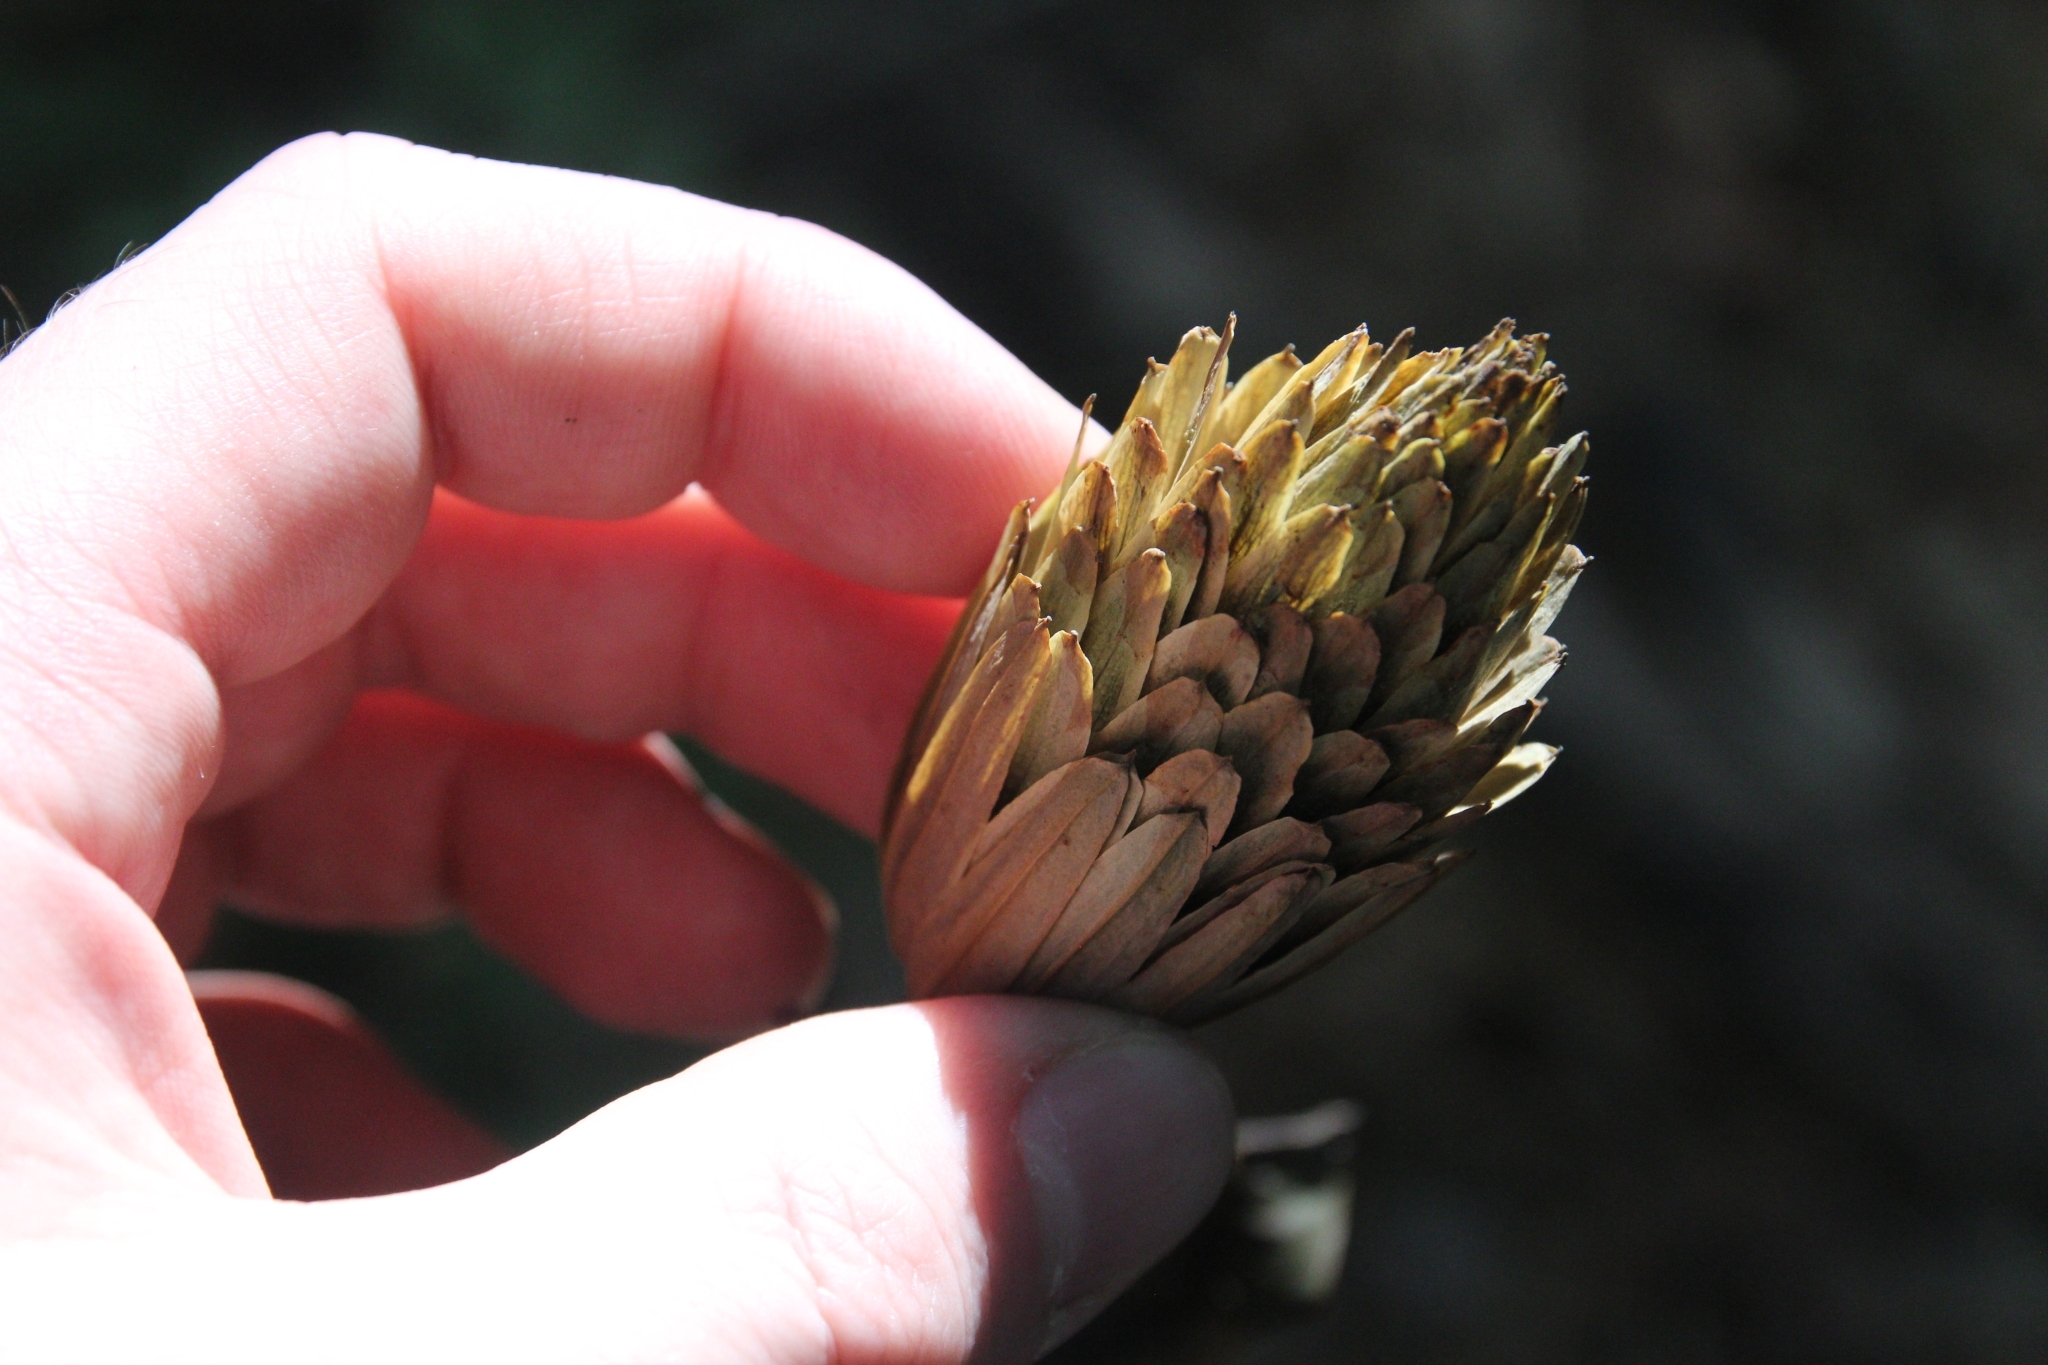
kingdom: Plantae
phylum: Tracheophyta
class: Magnoliopsida
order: Magnoliales
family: Magnoliaceae
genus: Liriodendron
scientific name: Liriodendron tulipifera
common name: Tulip tree
